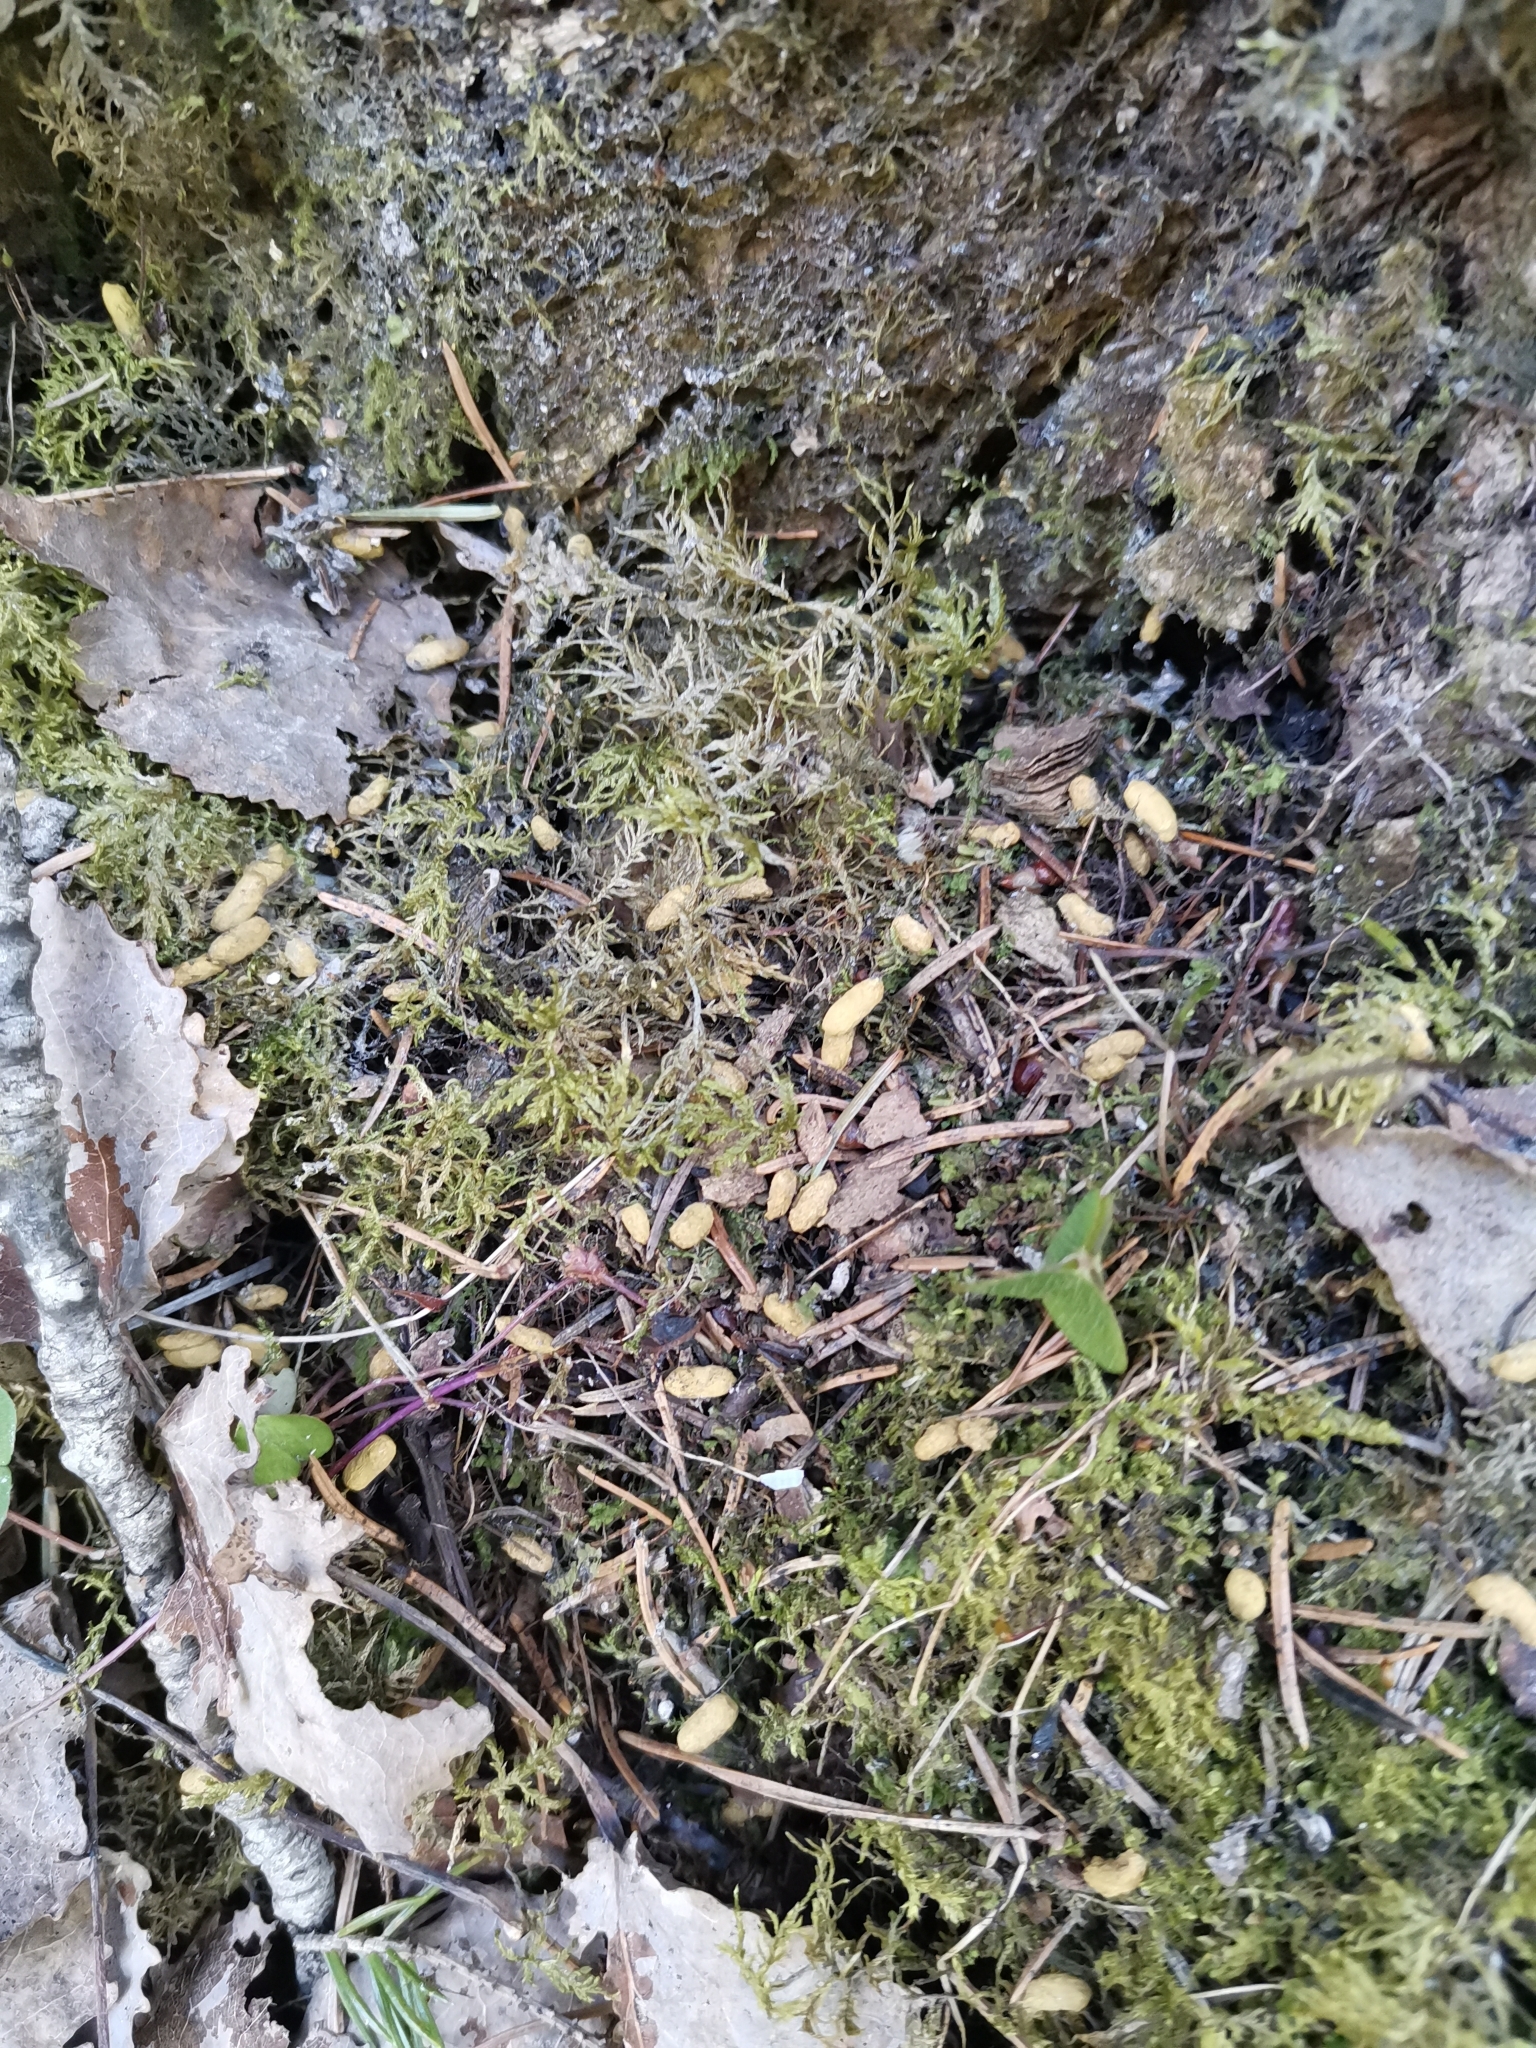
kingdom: Animalia
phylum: Chordata
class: Mammalia
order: Rodentia
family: Sciuridae
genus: Pteromys
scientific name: Pteromys volans
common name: Siberian flying squirrel
